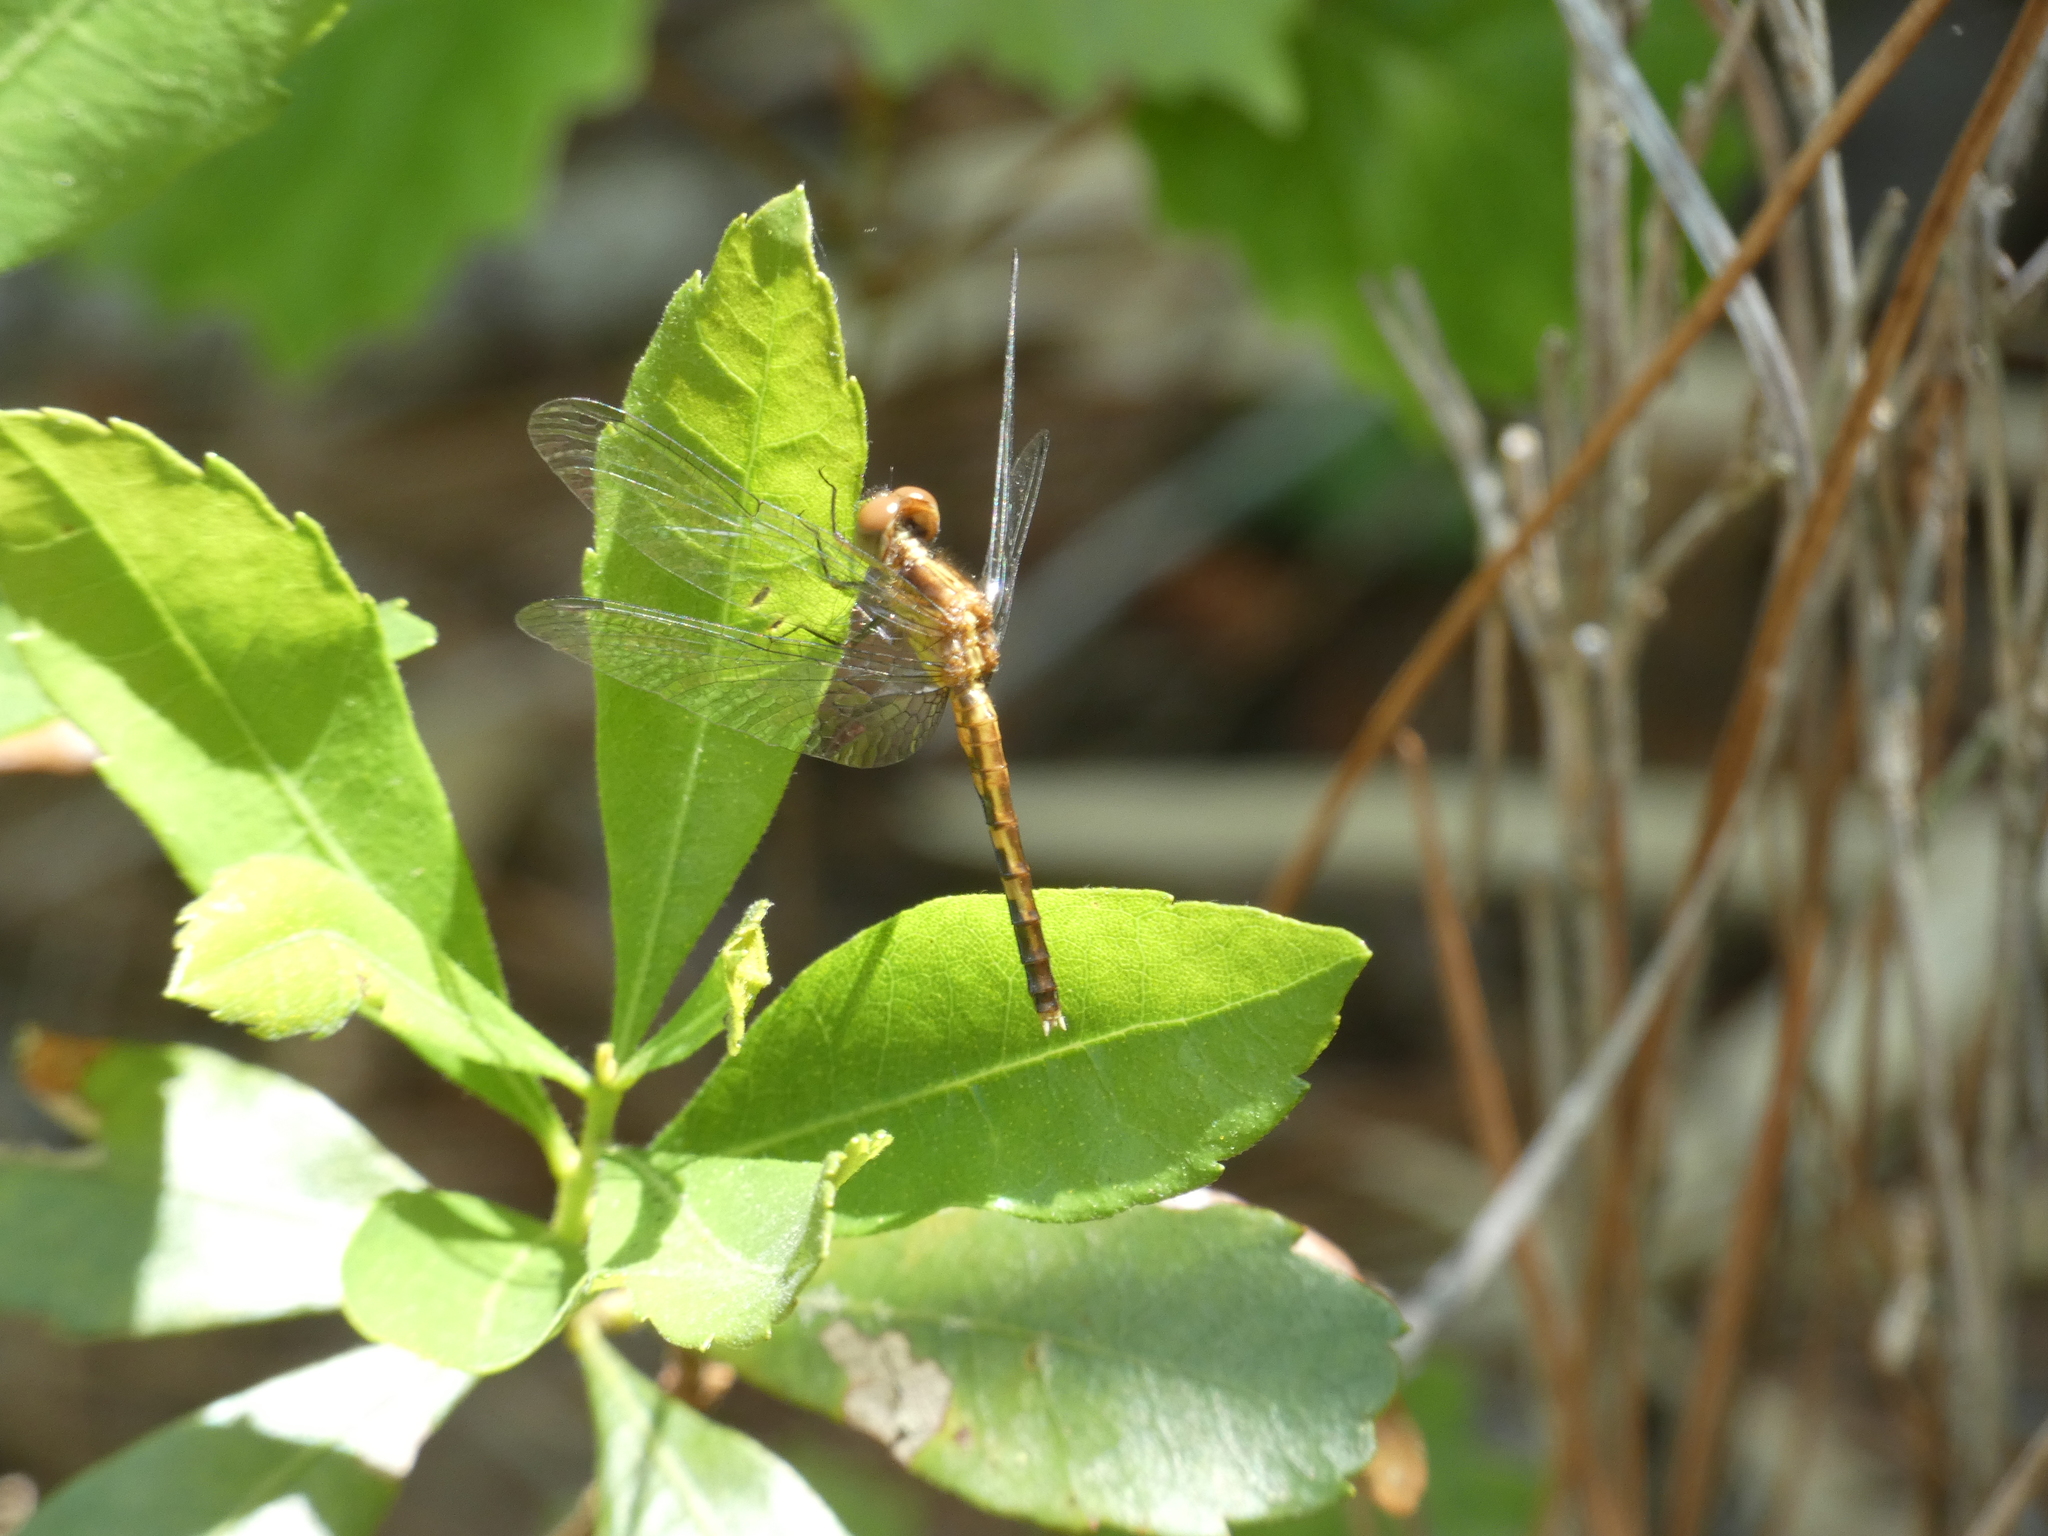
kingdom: Animalia
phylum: Arthropoda
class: Insecta
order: Odonata
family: Libellulidae
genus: Erythrodiplax
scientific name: Erythrodiplax minuscula
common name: Little blue dragonlet
